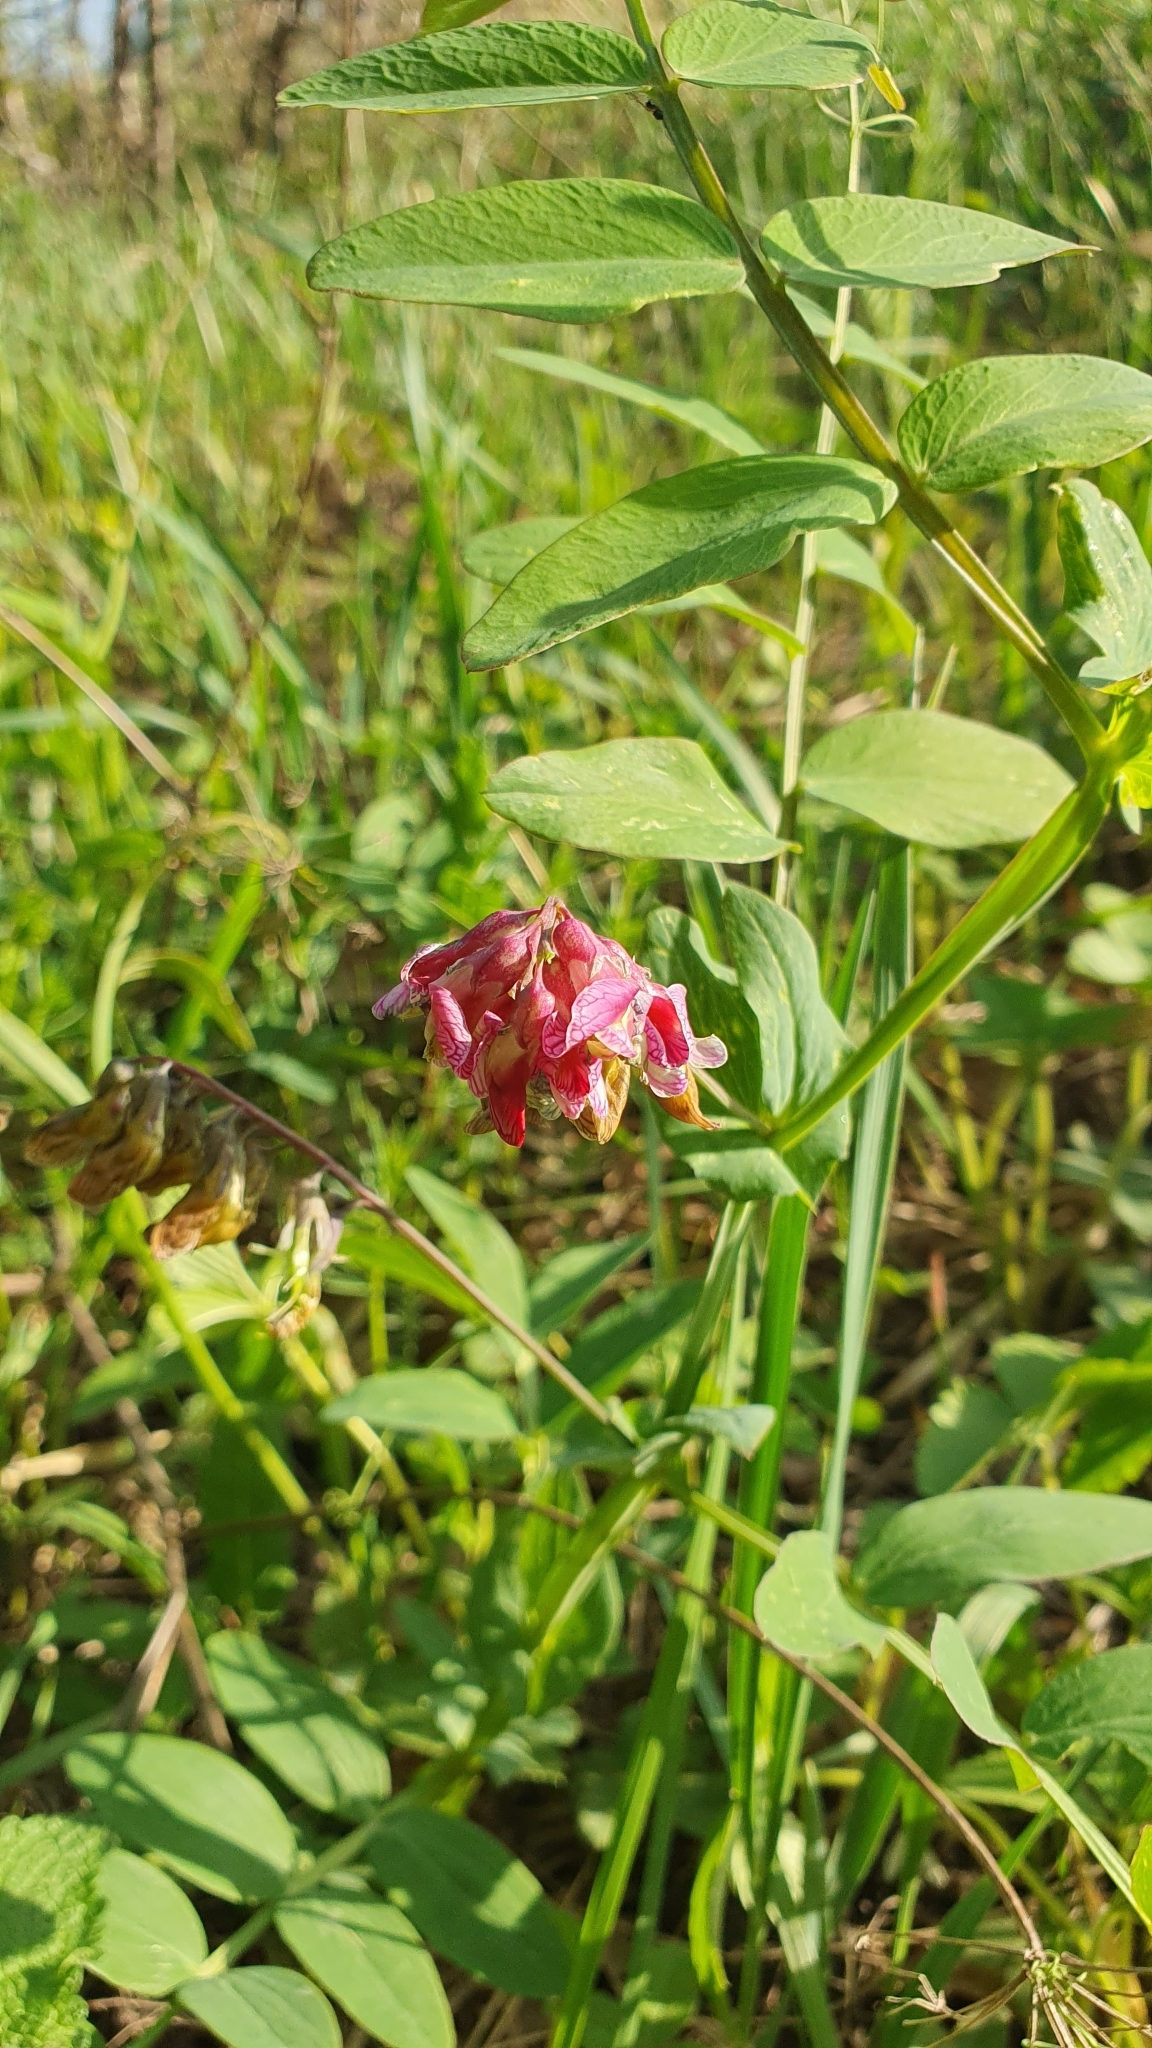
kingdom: Plantae
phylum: Tracheophyta
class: Magnoliopsida
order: Fabales
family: Fabaceae
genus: Lathyrus
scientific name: Lathyrus pisiformis
